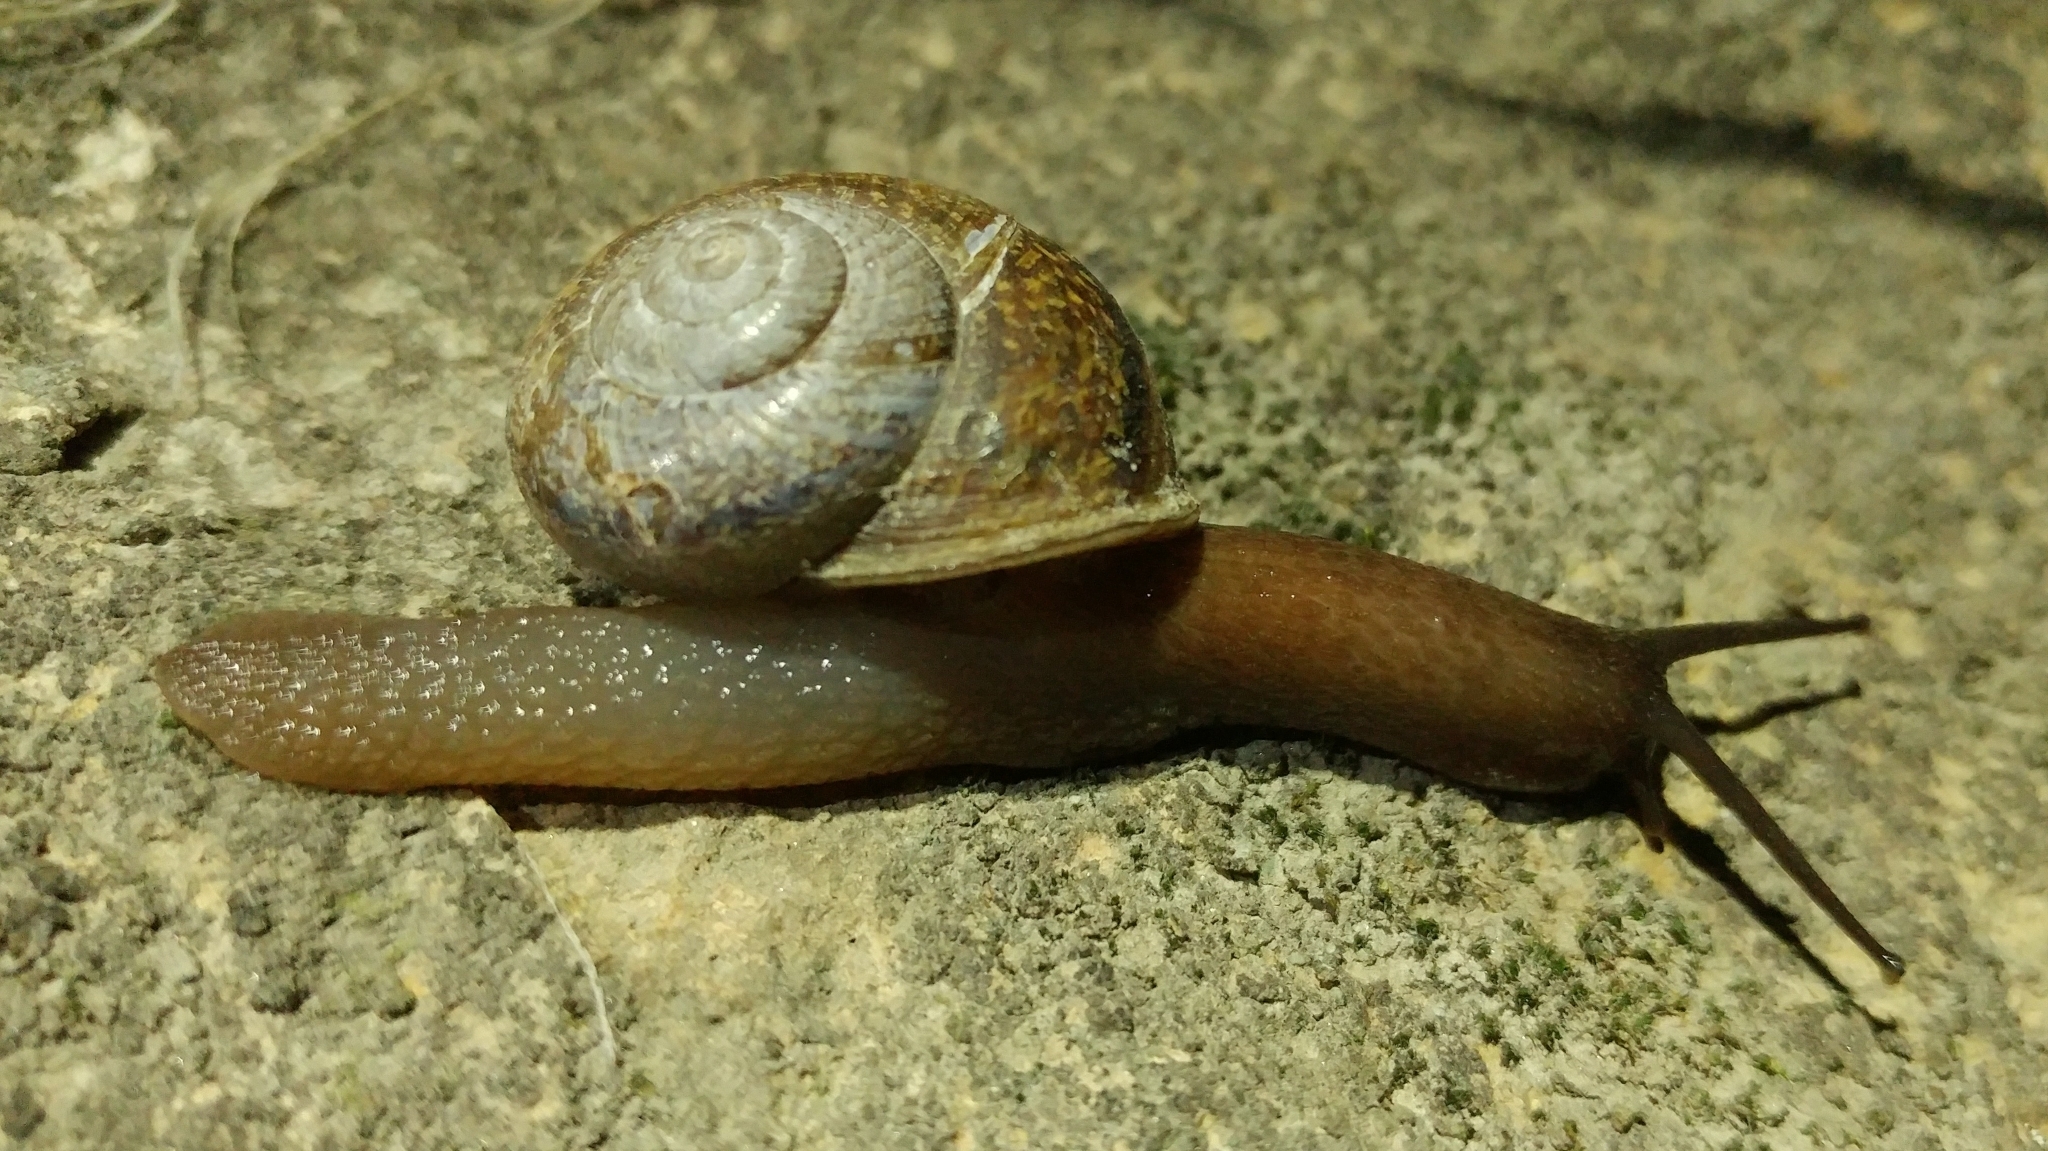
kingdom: Animalia
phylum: Mollusca
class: Gastropoda
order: Stylommatophora
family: Xanthonychidae
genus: Xerarionta
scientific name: Xerarionta stearnsiana
